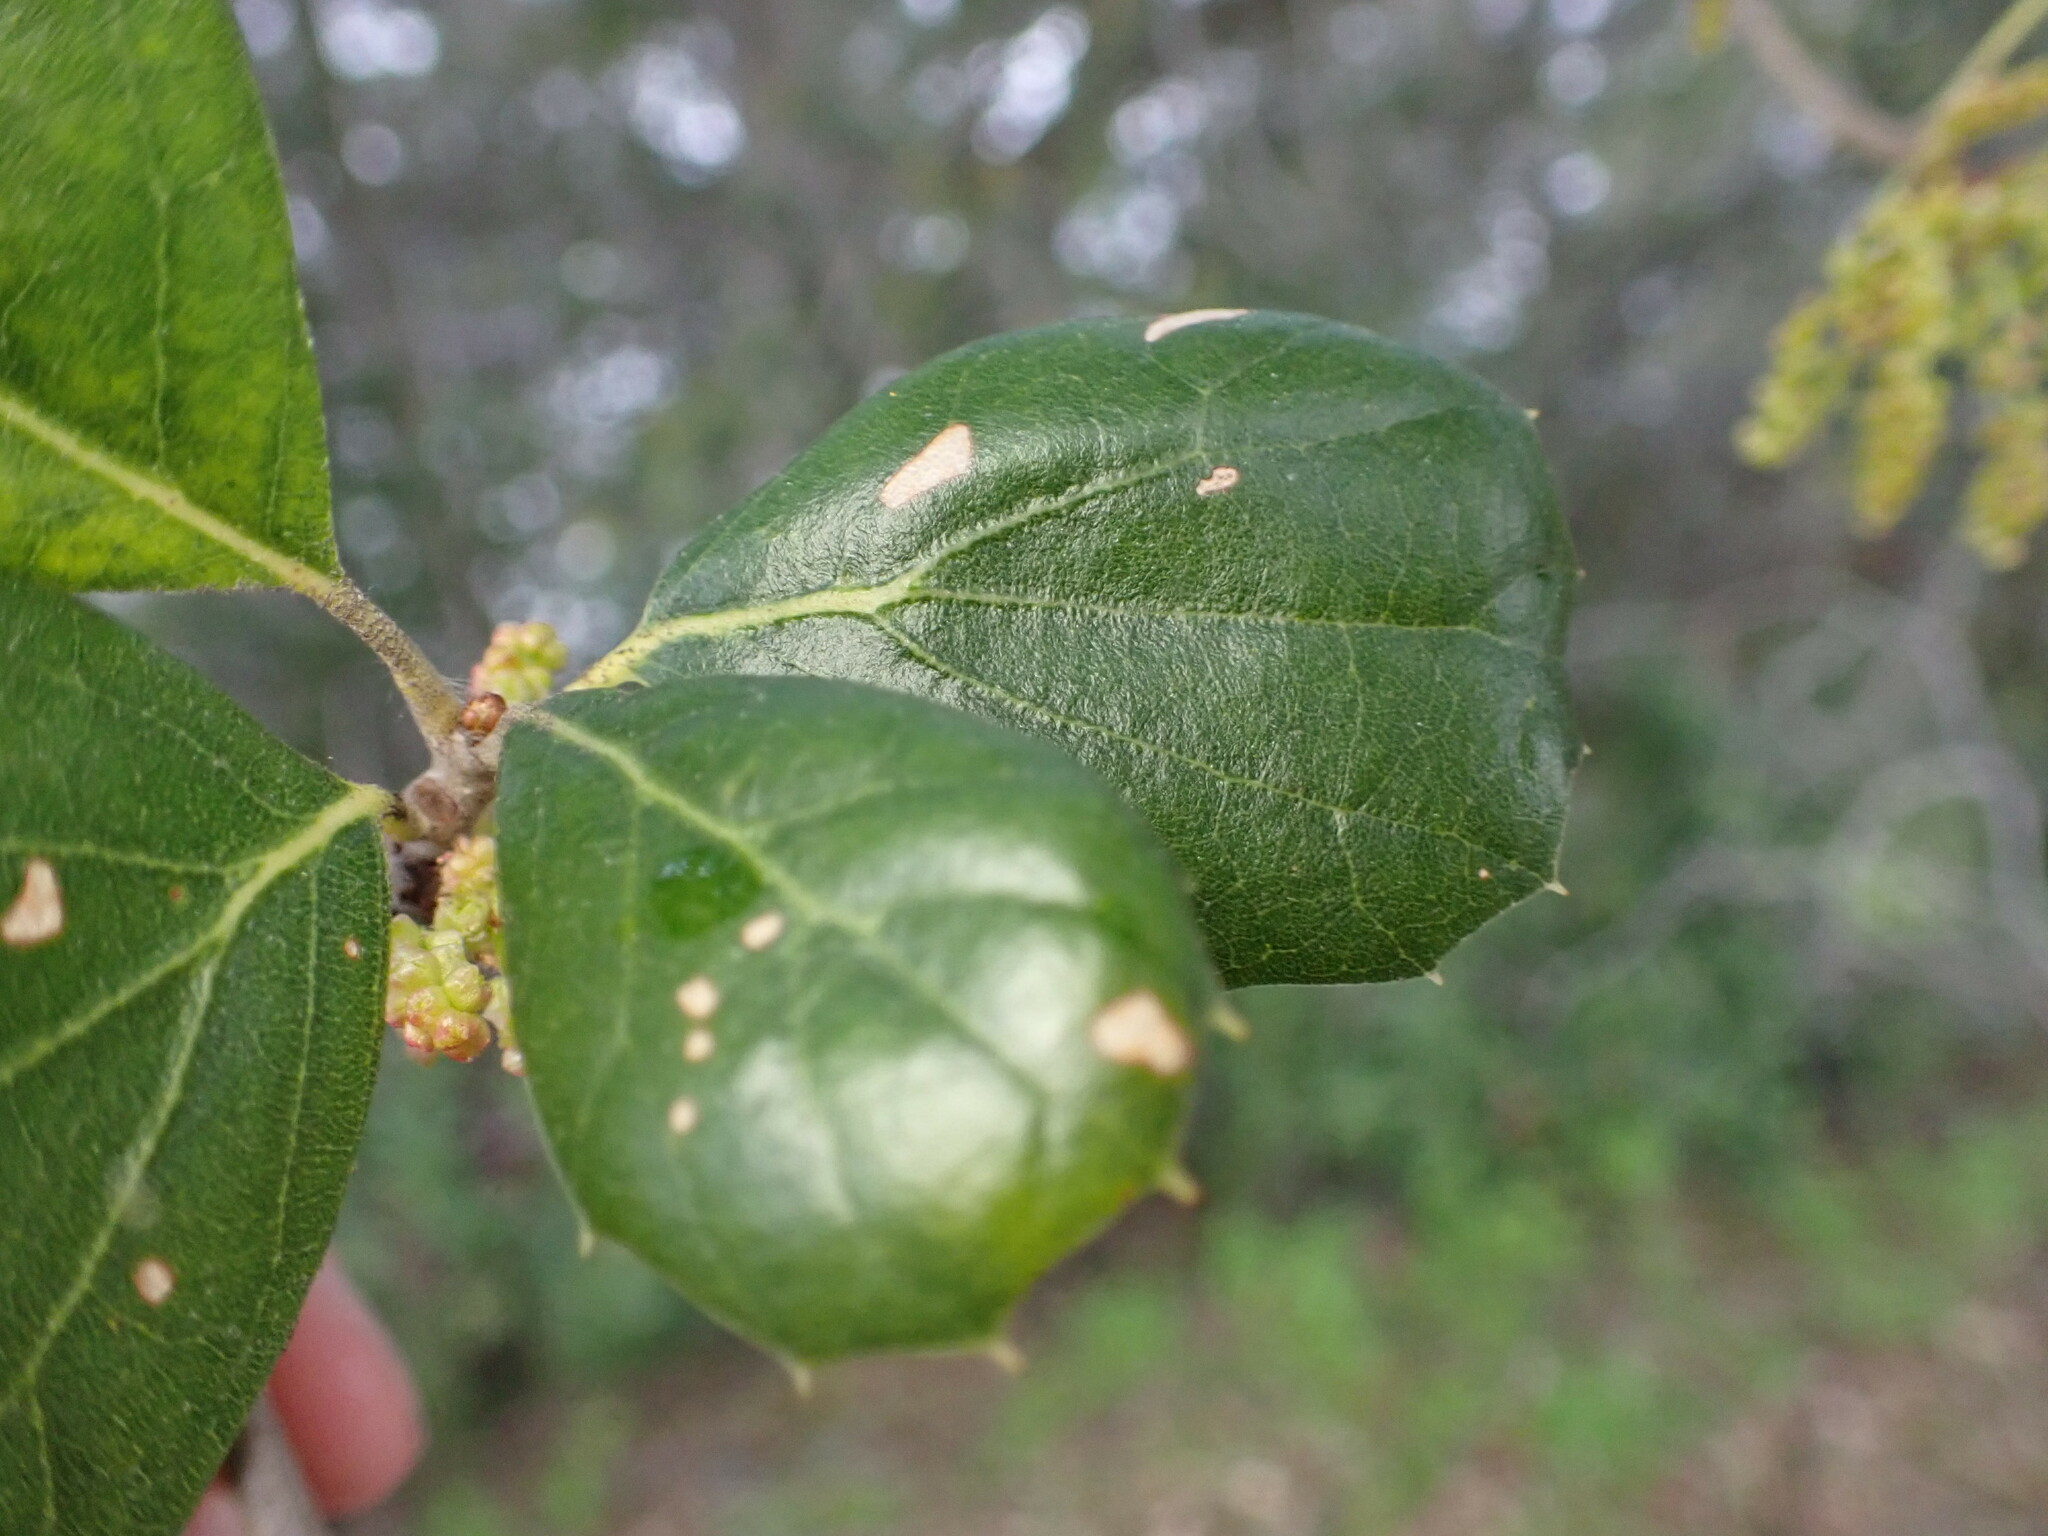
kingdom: Plantae
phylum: Tracheophyta
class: Magnoliopsida
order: Fagales
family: Fagaceae
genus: Quercus
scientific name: Quercus agrifolia
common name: California live oak
